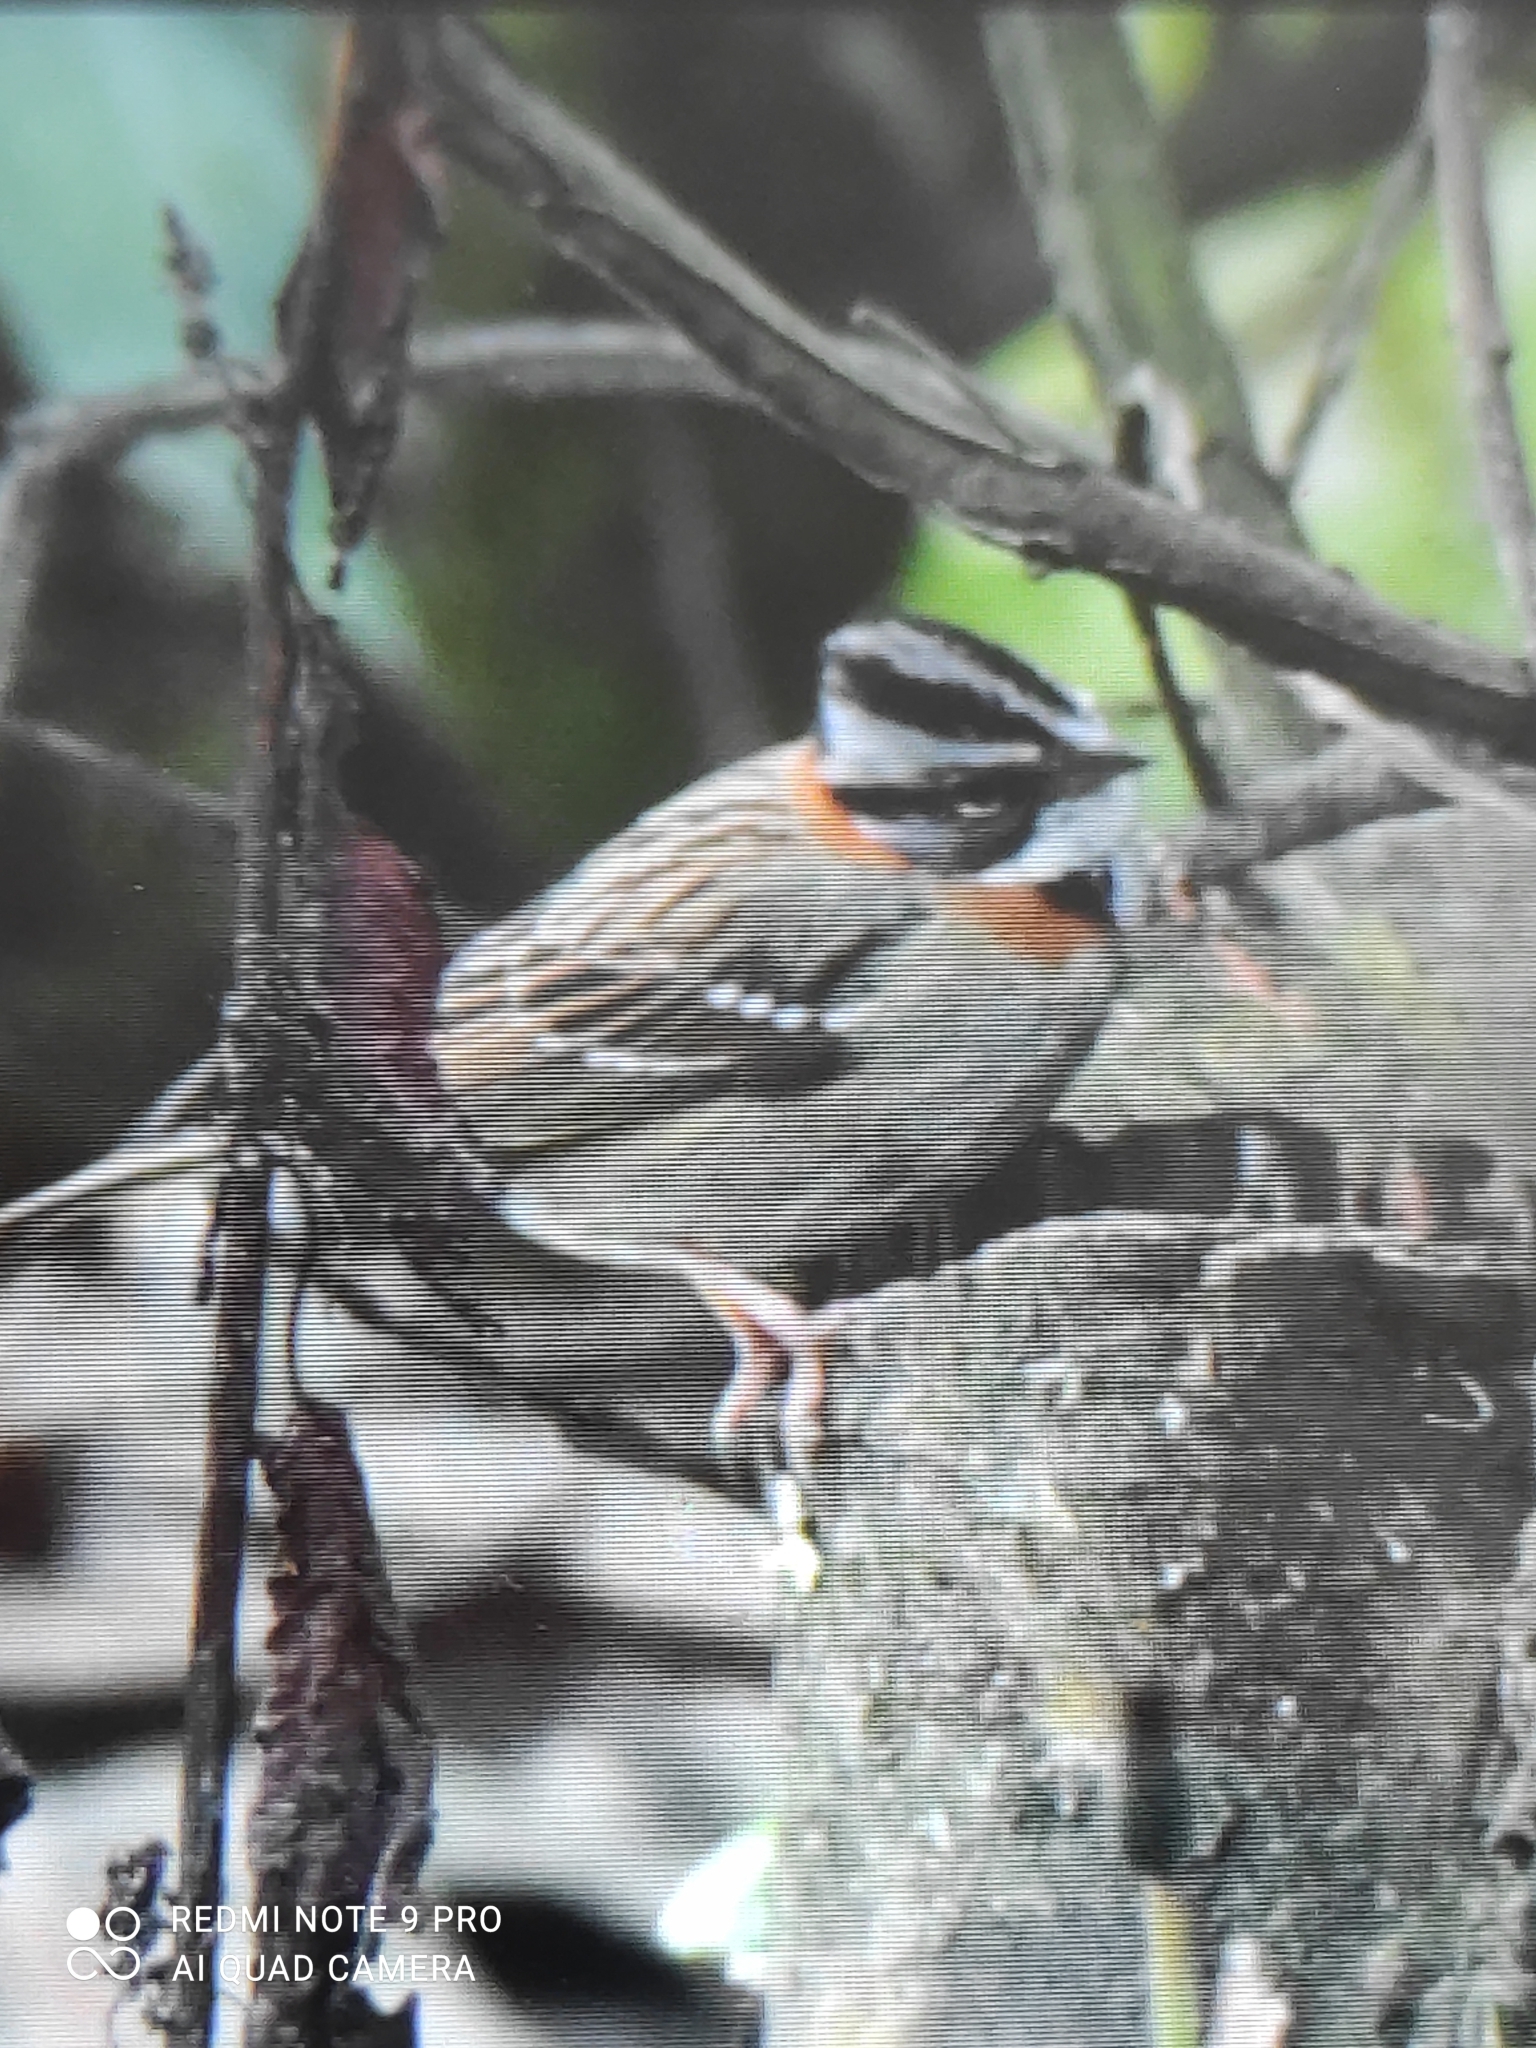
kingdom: Animalia
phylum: Chordata
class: Aves
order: Passeriformes
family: Passerellidae
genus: Zonotrichia
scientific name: Zonotrichia capensis
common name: Rufous-collared sparrow
